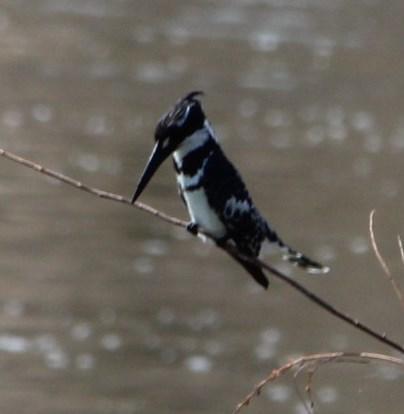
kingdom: Animalia
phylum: Chordata
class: Aves
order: Coraciiformes
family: Alcedinidae
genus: Ceryle
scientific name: Ceryle rudis
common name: Pied kingfisher
